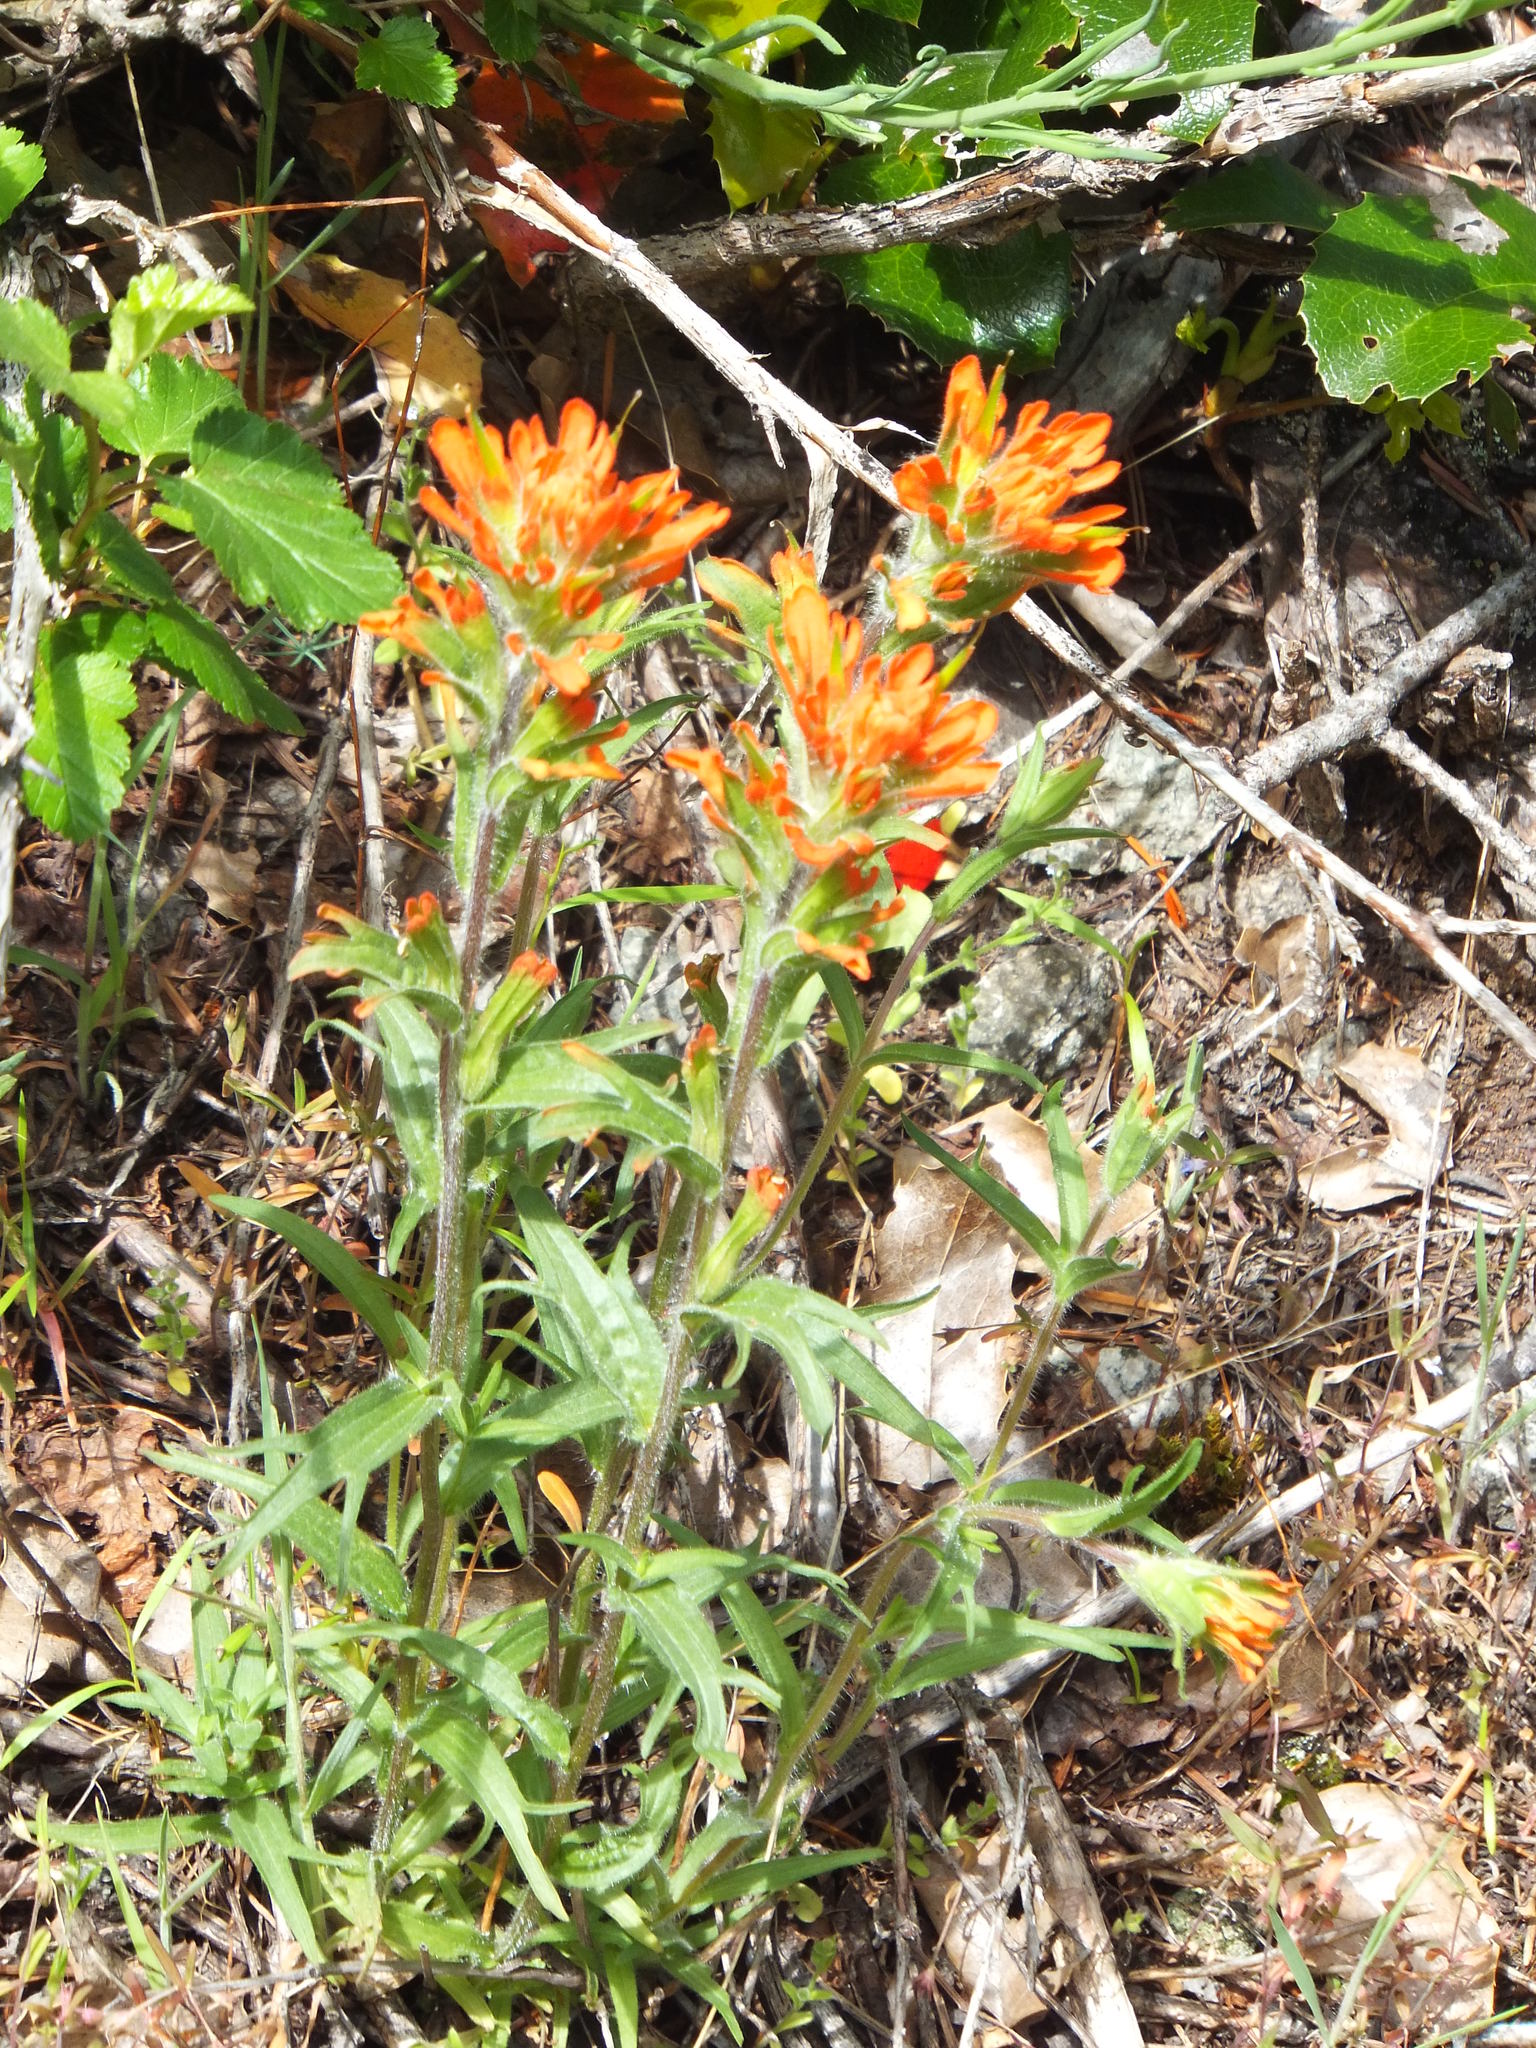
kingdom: Plantae
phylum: Tracheophyta
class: Magnoliopsida
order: Lamiales
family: Orobanchaceae
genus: Castilleja
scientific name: Castilleja hispida
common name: Bristly paintbrush
